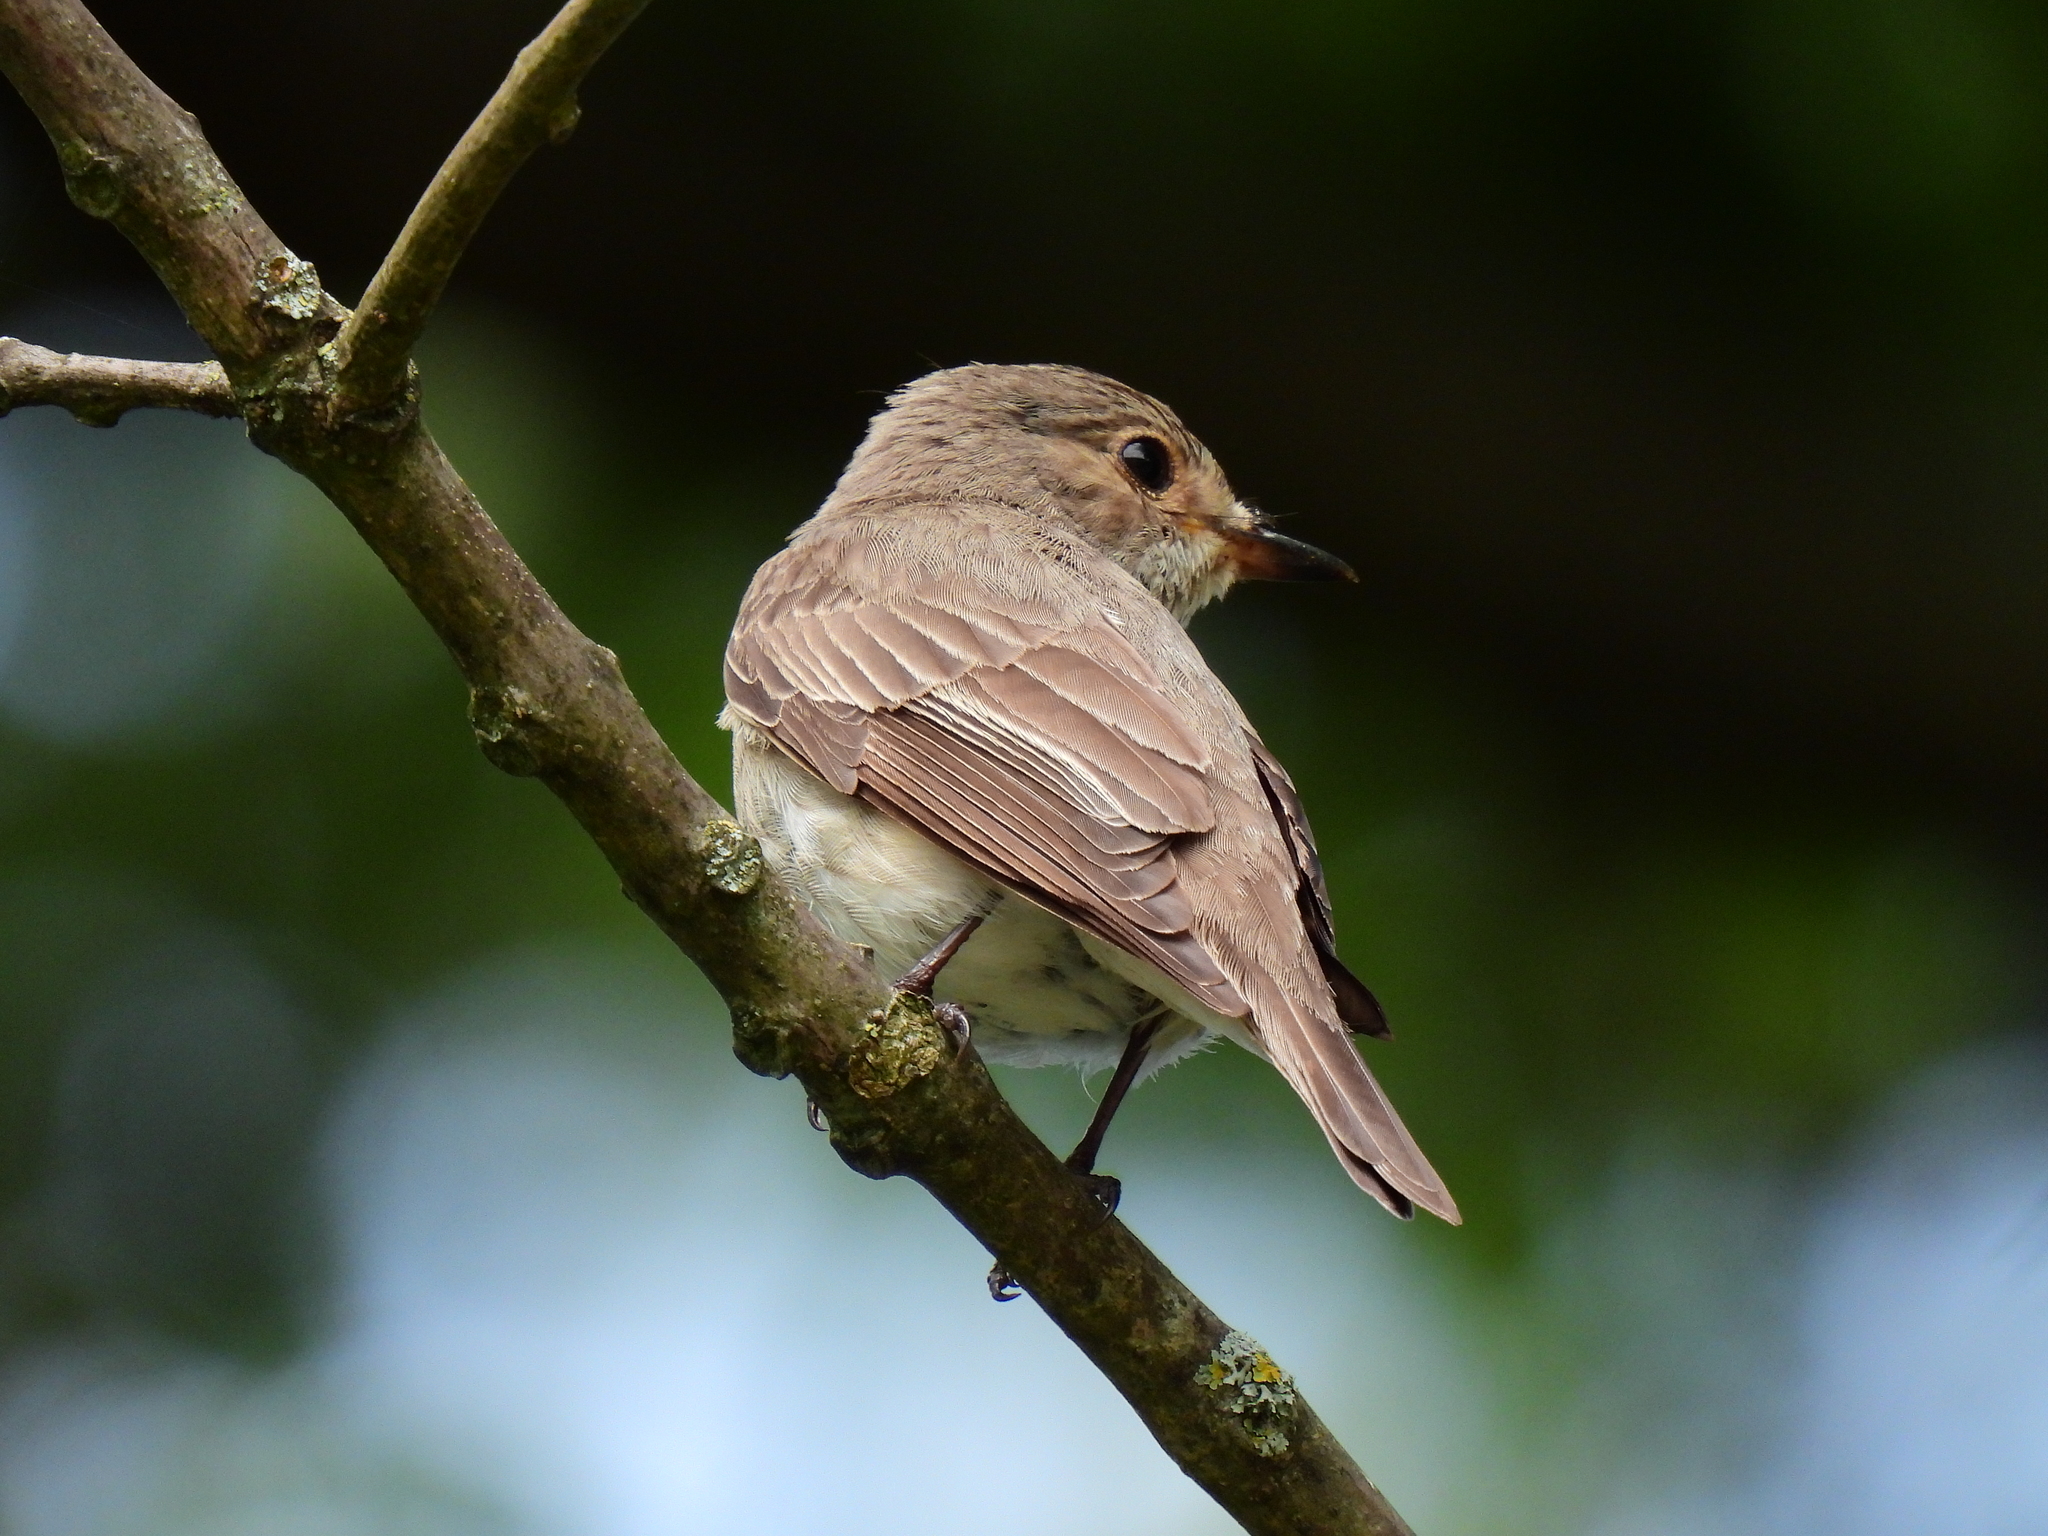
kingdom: Animalia
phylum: Chordata
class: Aves
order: Passeriformes
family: Muscicapidae
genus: Muscicapa
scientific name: Muscicapa striata
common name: Spotted flycatcher
